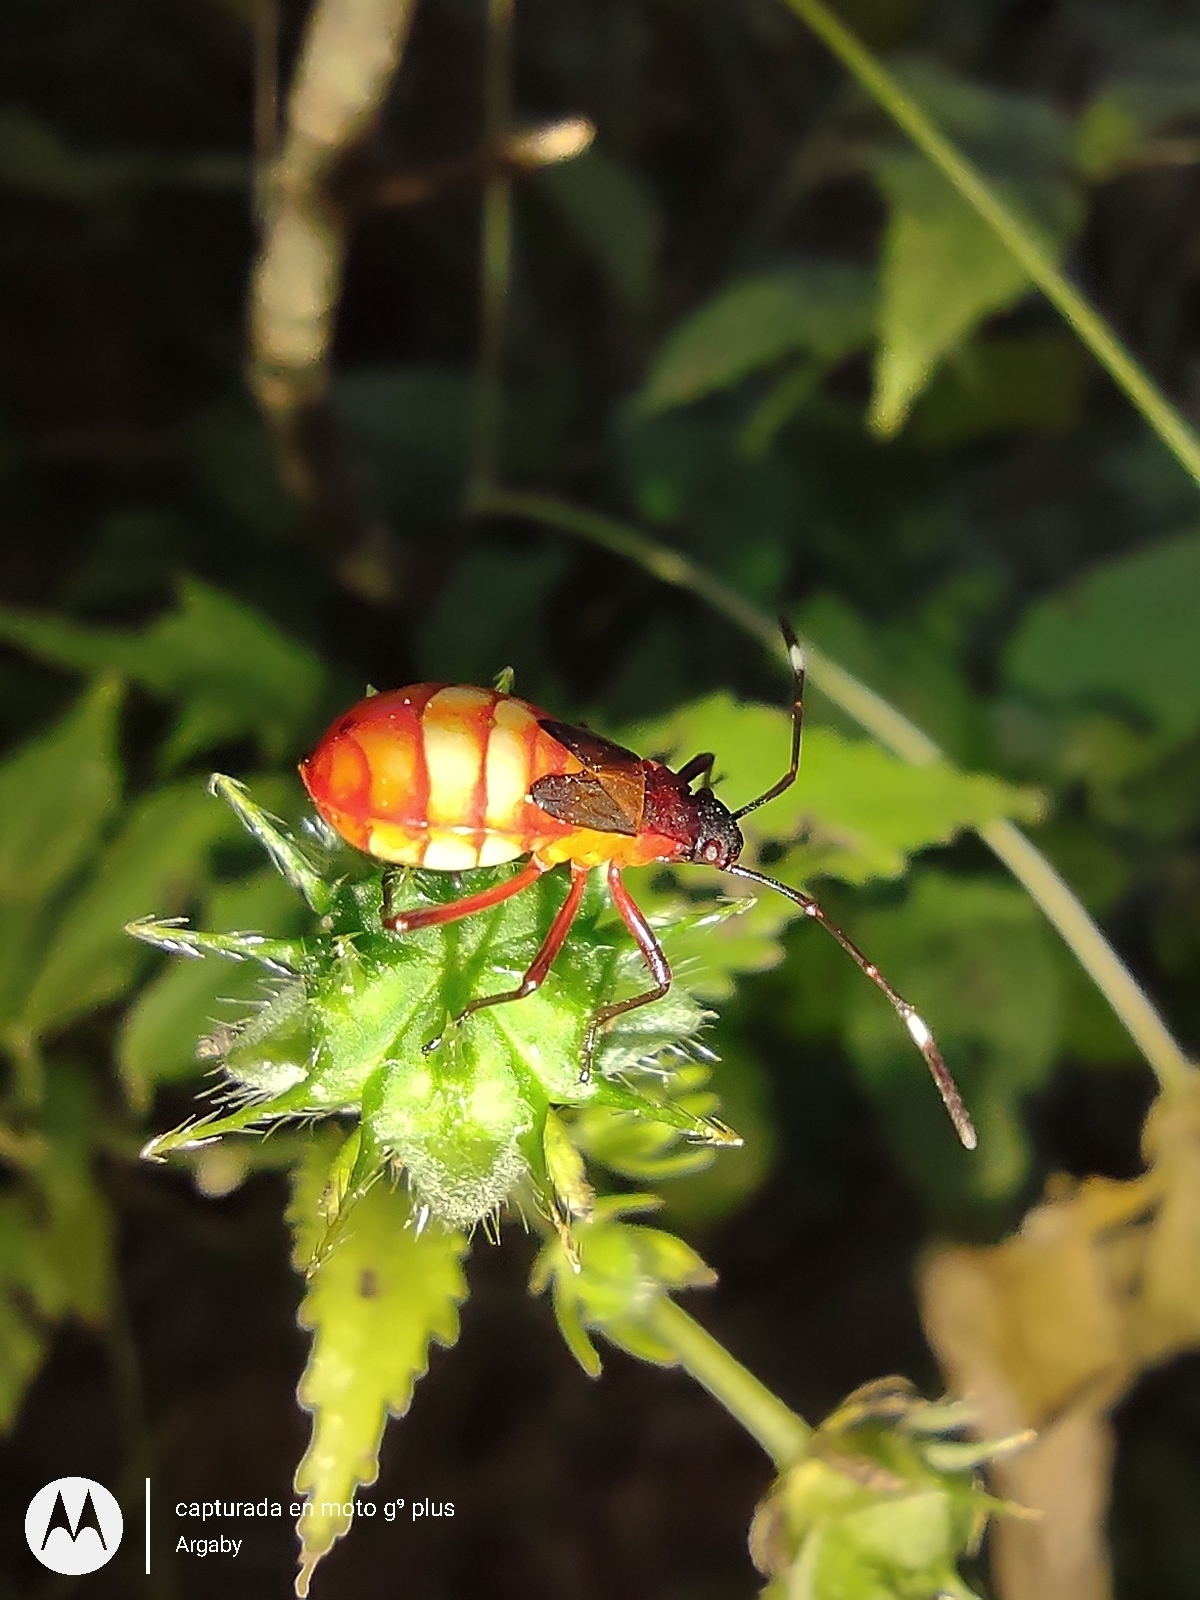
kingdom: Animalia
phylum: Arthropoda
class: Insecta
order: Hemiptera
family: Pyrrhocoridae
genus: Dysdercus
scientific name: Dysdercus albofasciatus
